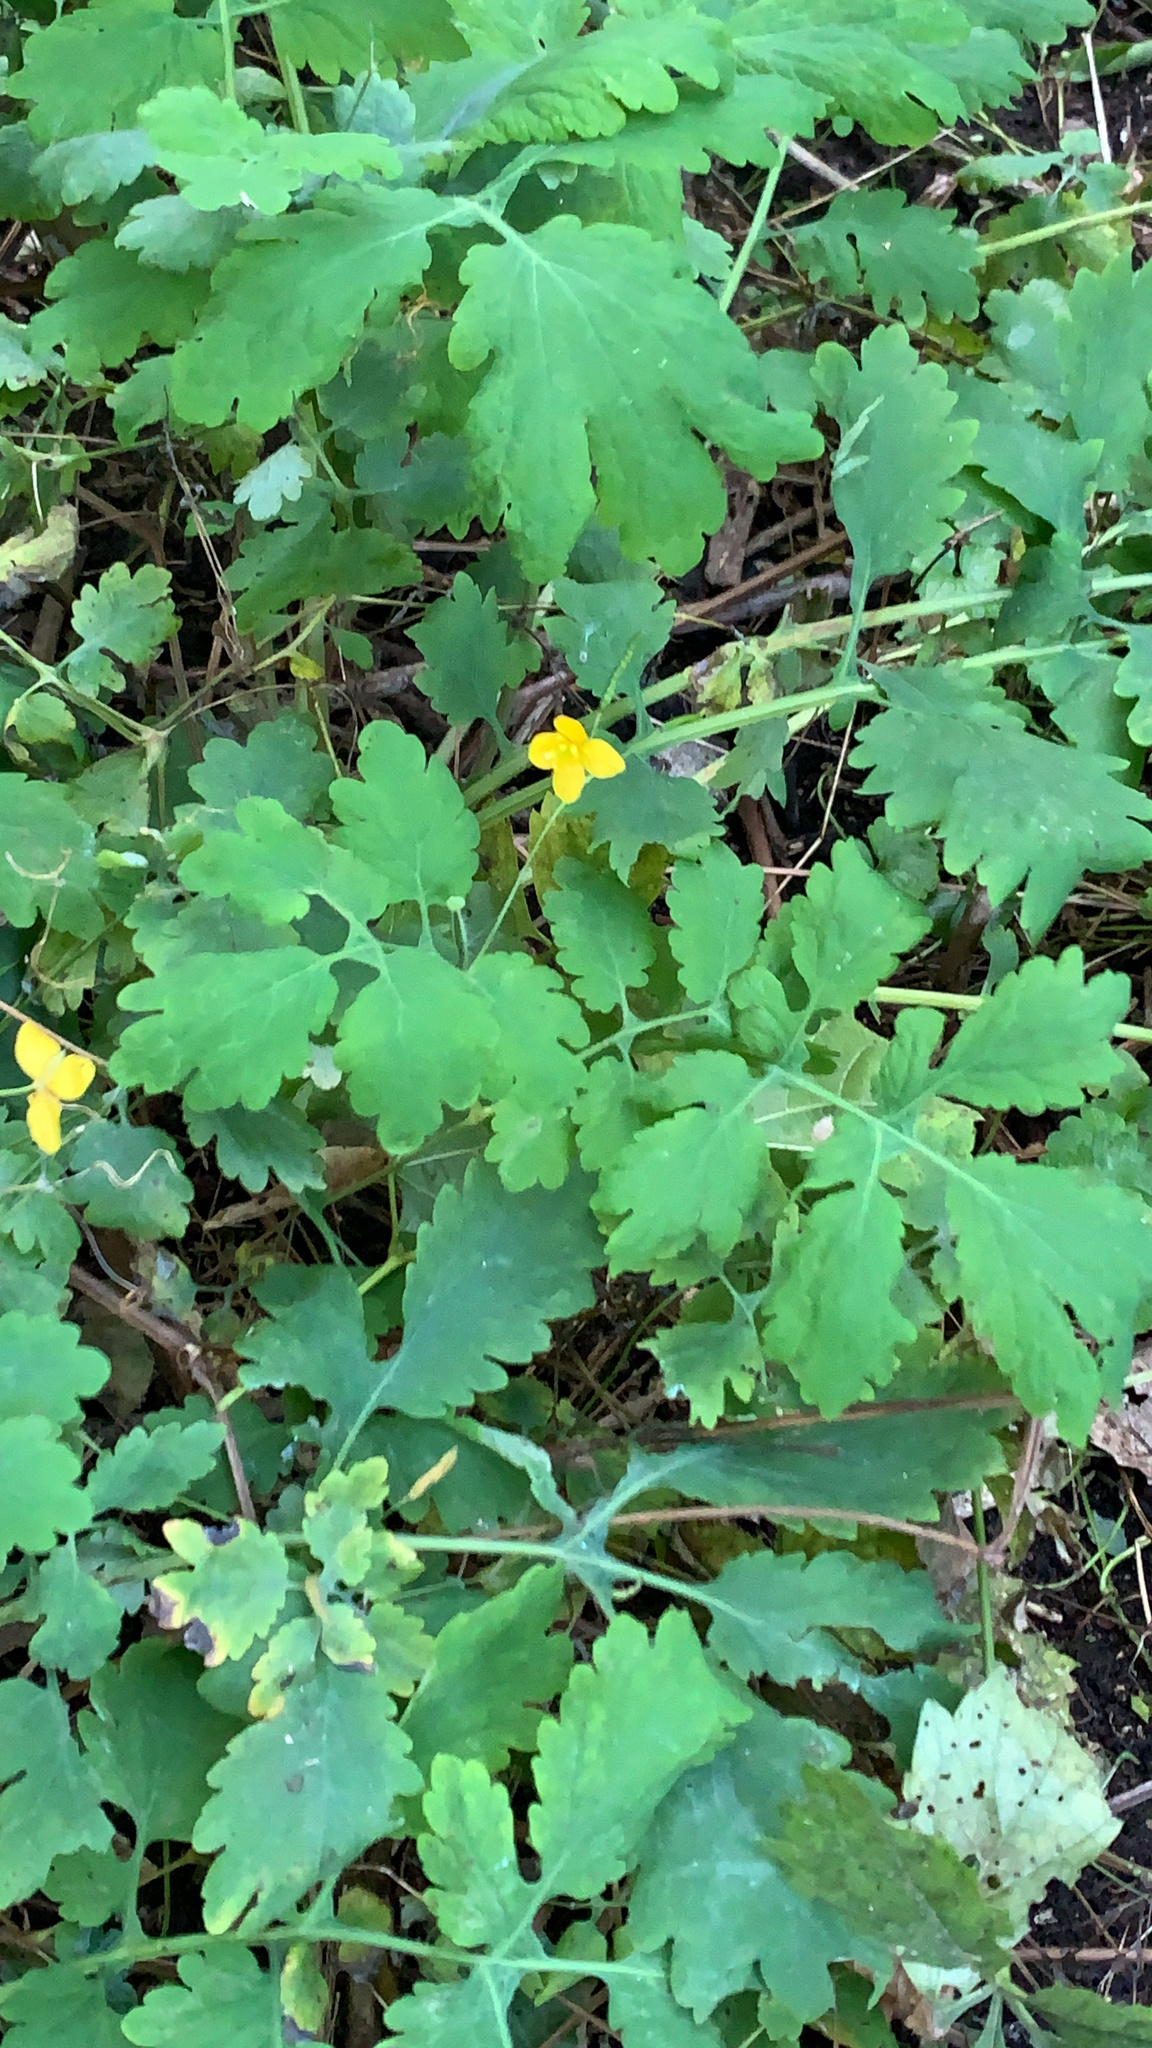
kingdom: Plantae
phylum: Tracheophyta
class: Magnoliopsida
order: Ranunculales
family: Papaveraceae
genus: Chelidonium
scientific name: Chelidonium majus
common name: Greater celandine
